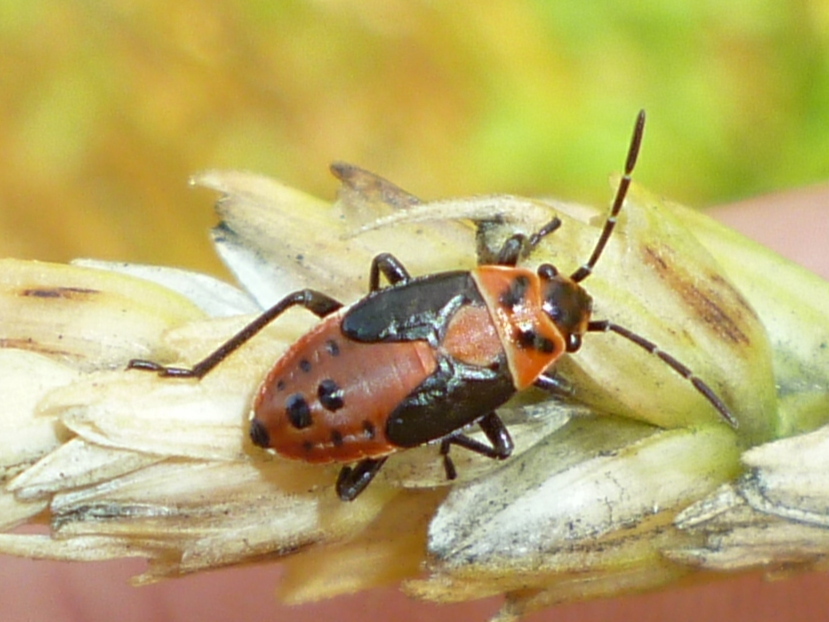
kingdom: Animalia
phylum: Arthropoda
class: Insecta
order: Hemiptera
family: Lygaeidae
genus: Lygaeus
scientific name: Lygaeus kalmii
